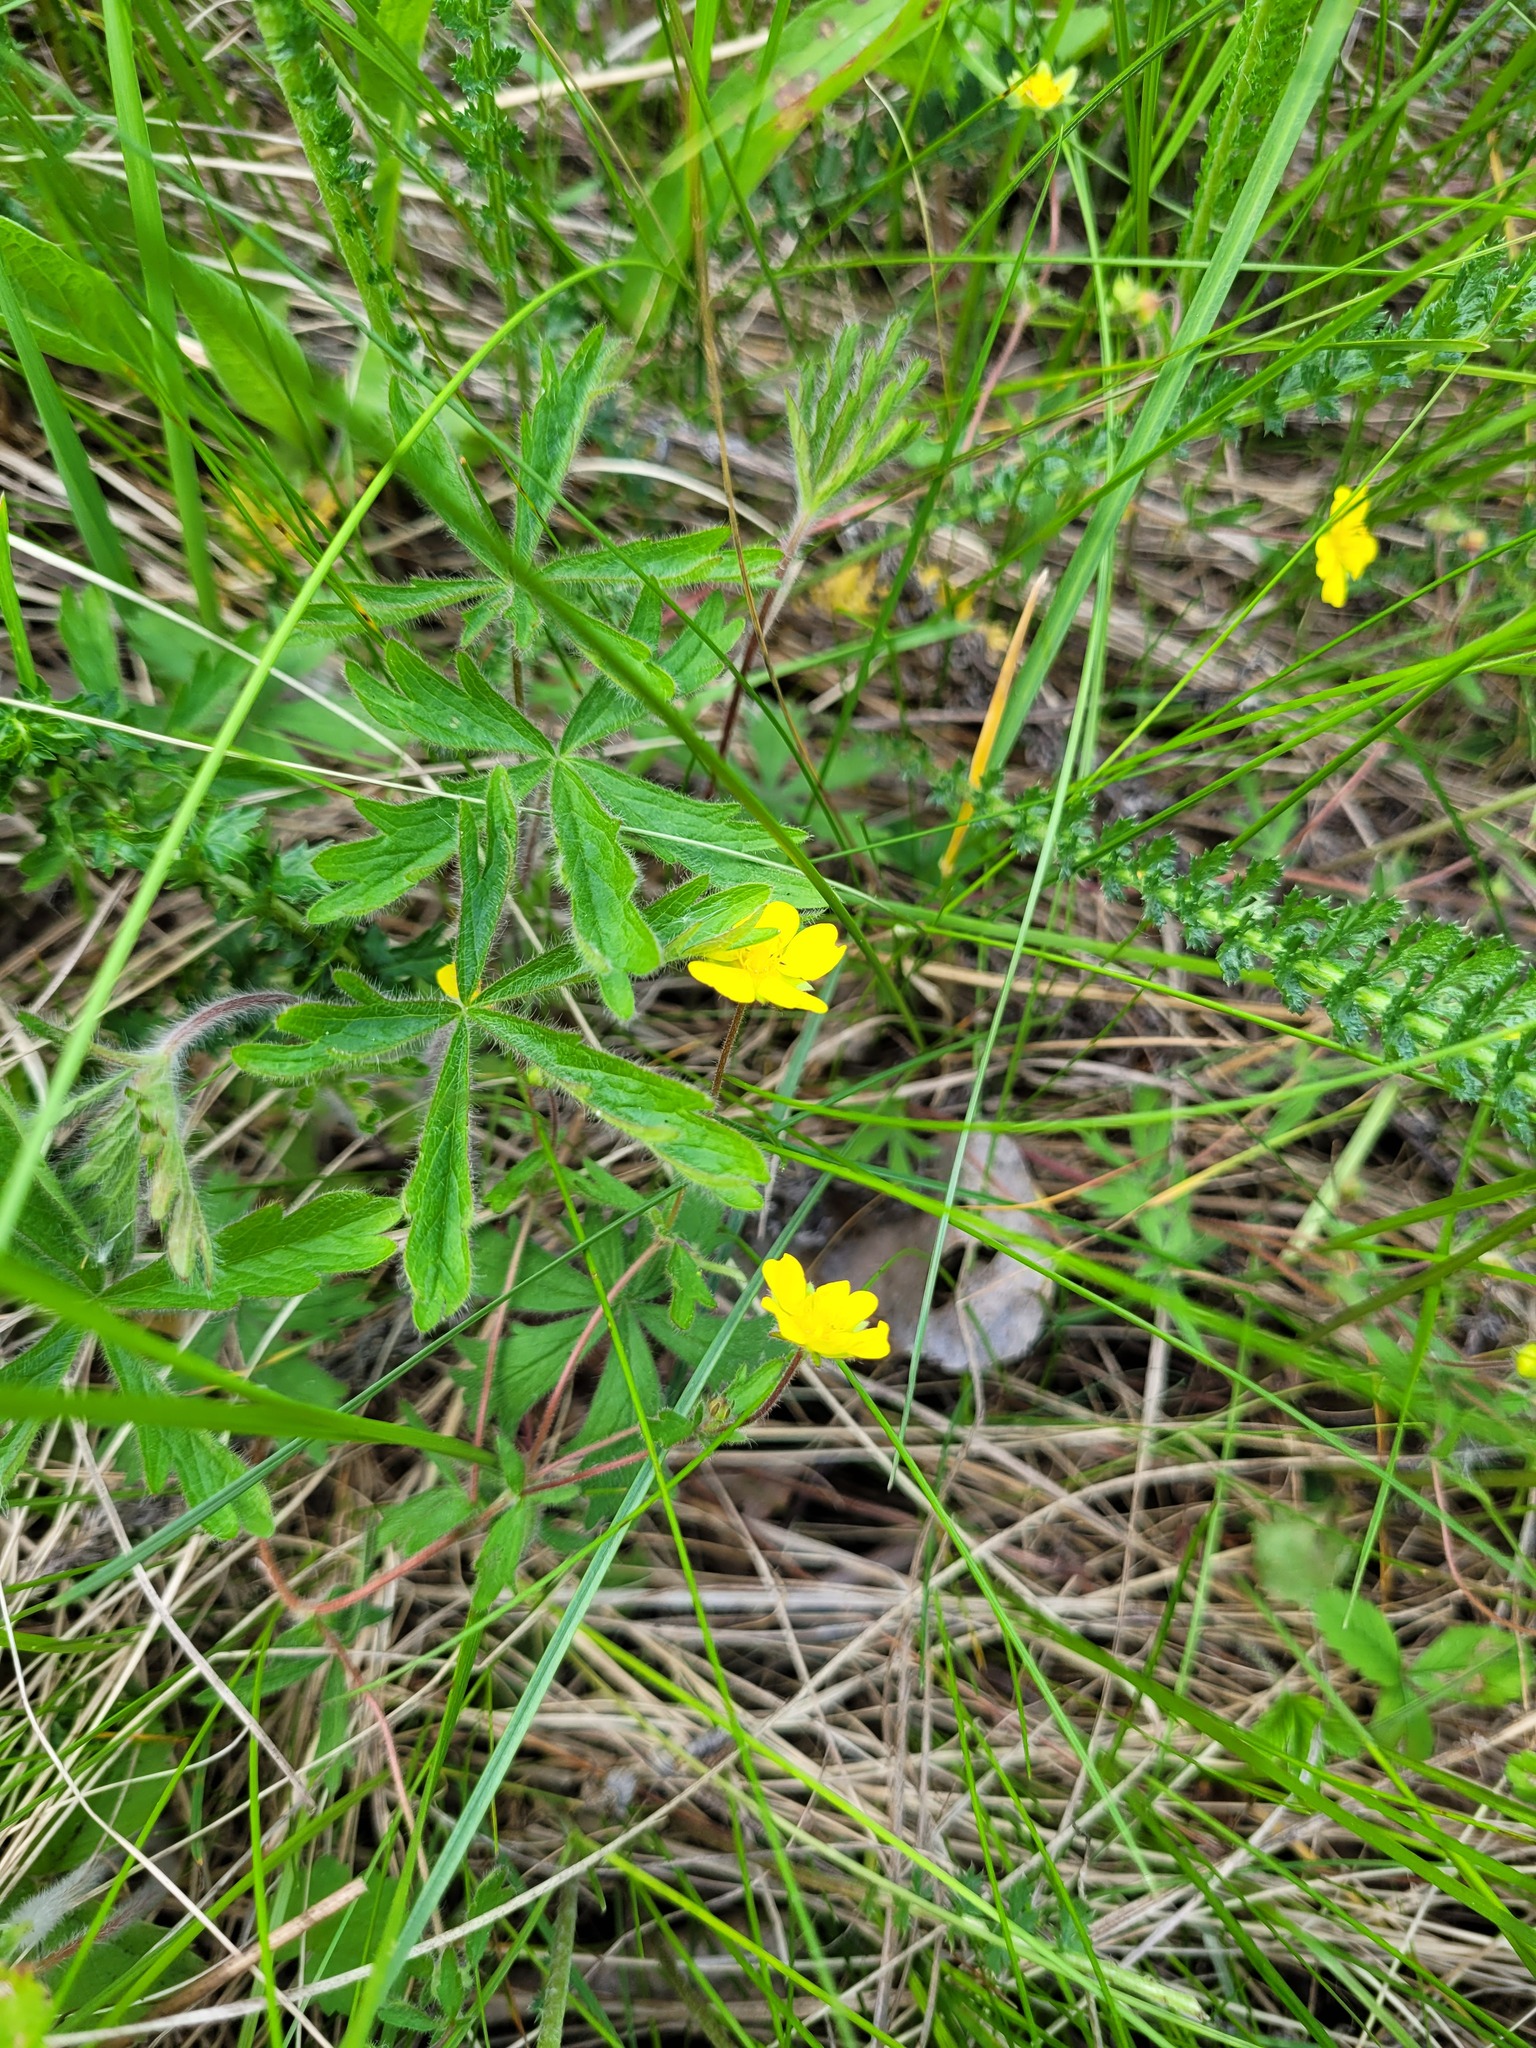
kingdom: Plantae
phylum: Tracheophyta
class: Magnoliopsida
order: Rosales
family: Rosaceae
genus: Potentilla
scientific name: Potentilla humifusa
